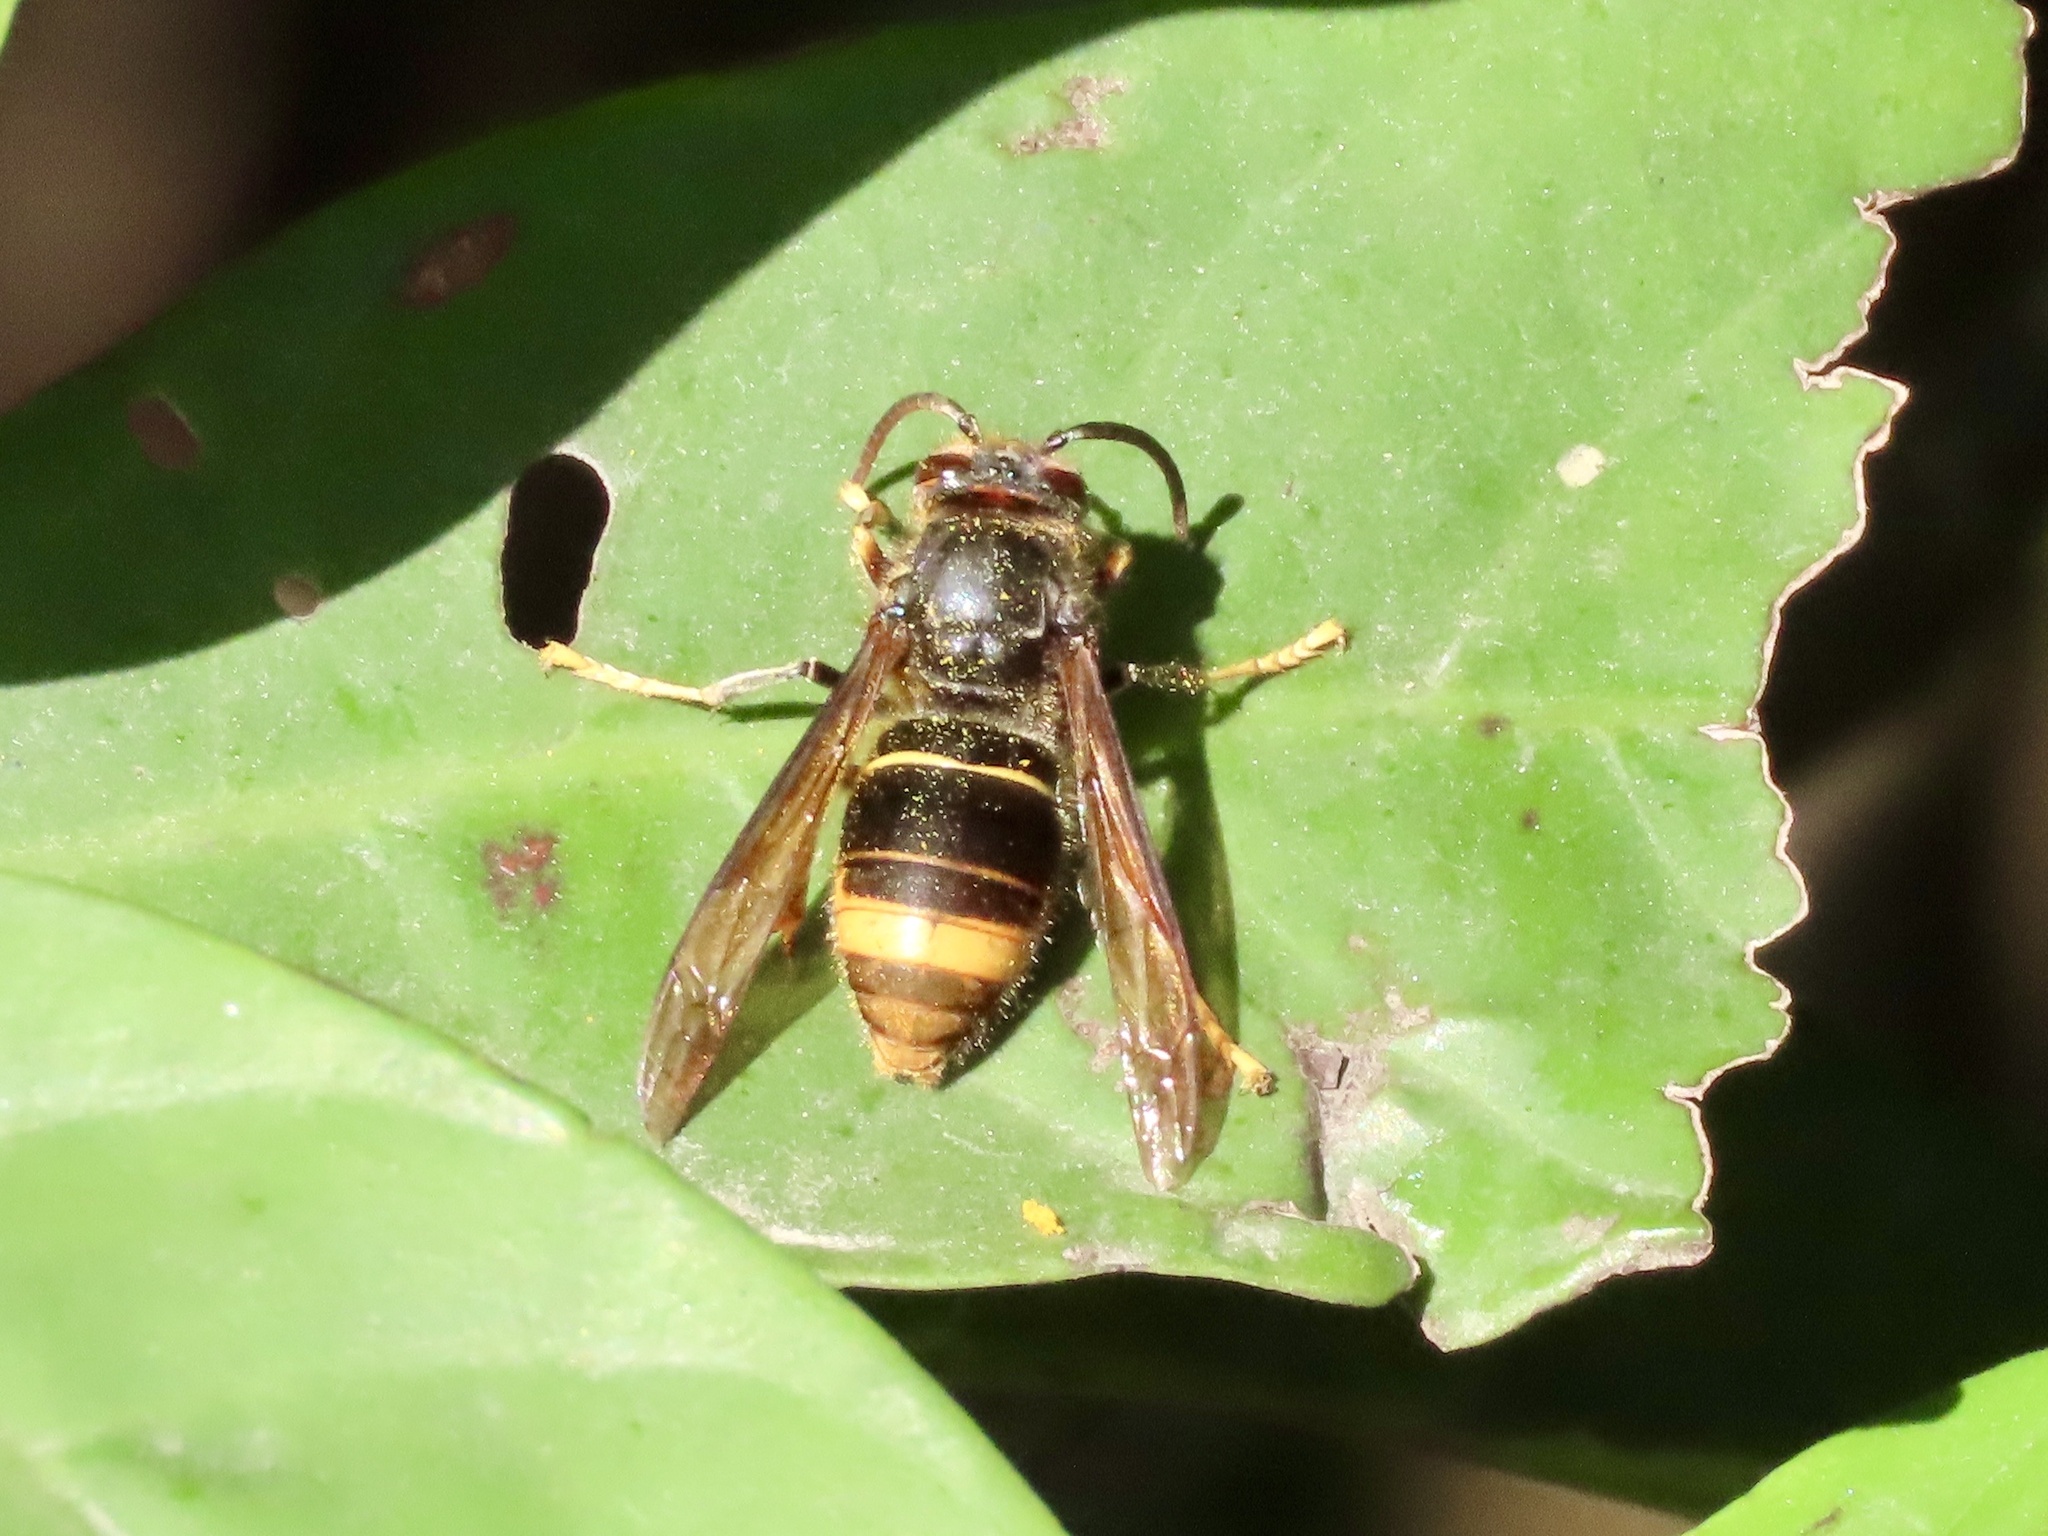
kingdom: Animalia
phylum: Arthropoda
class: Insecta
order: Hymenoptera
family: Vespidae
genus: Vespa
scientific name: Vespa velutina
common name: Asian hornet
